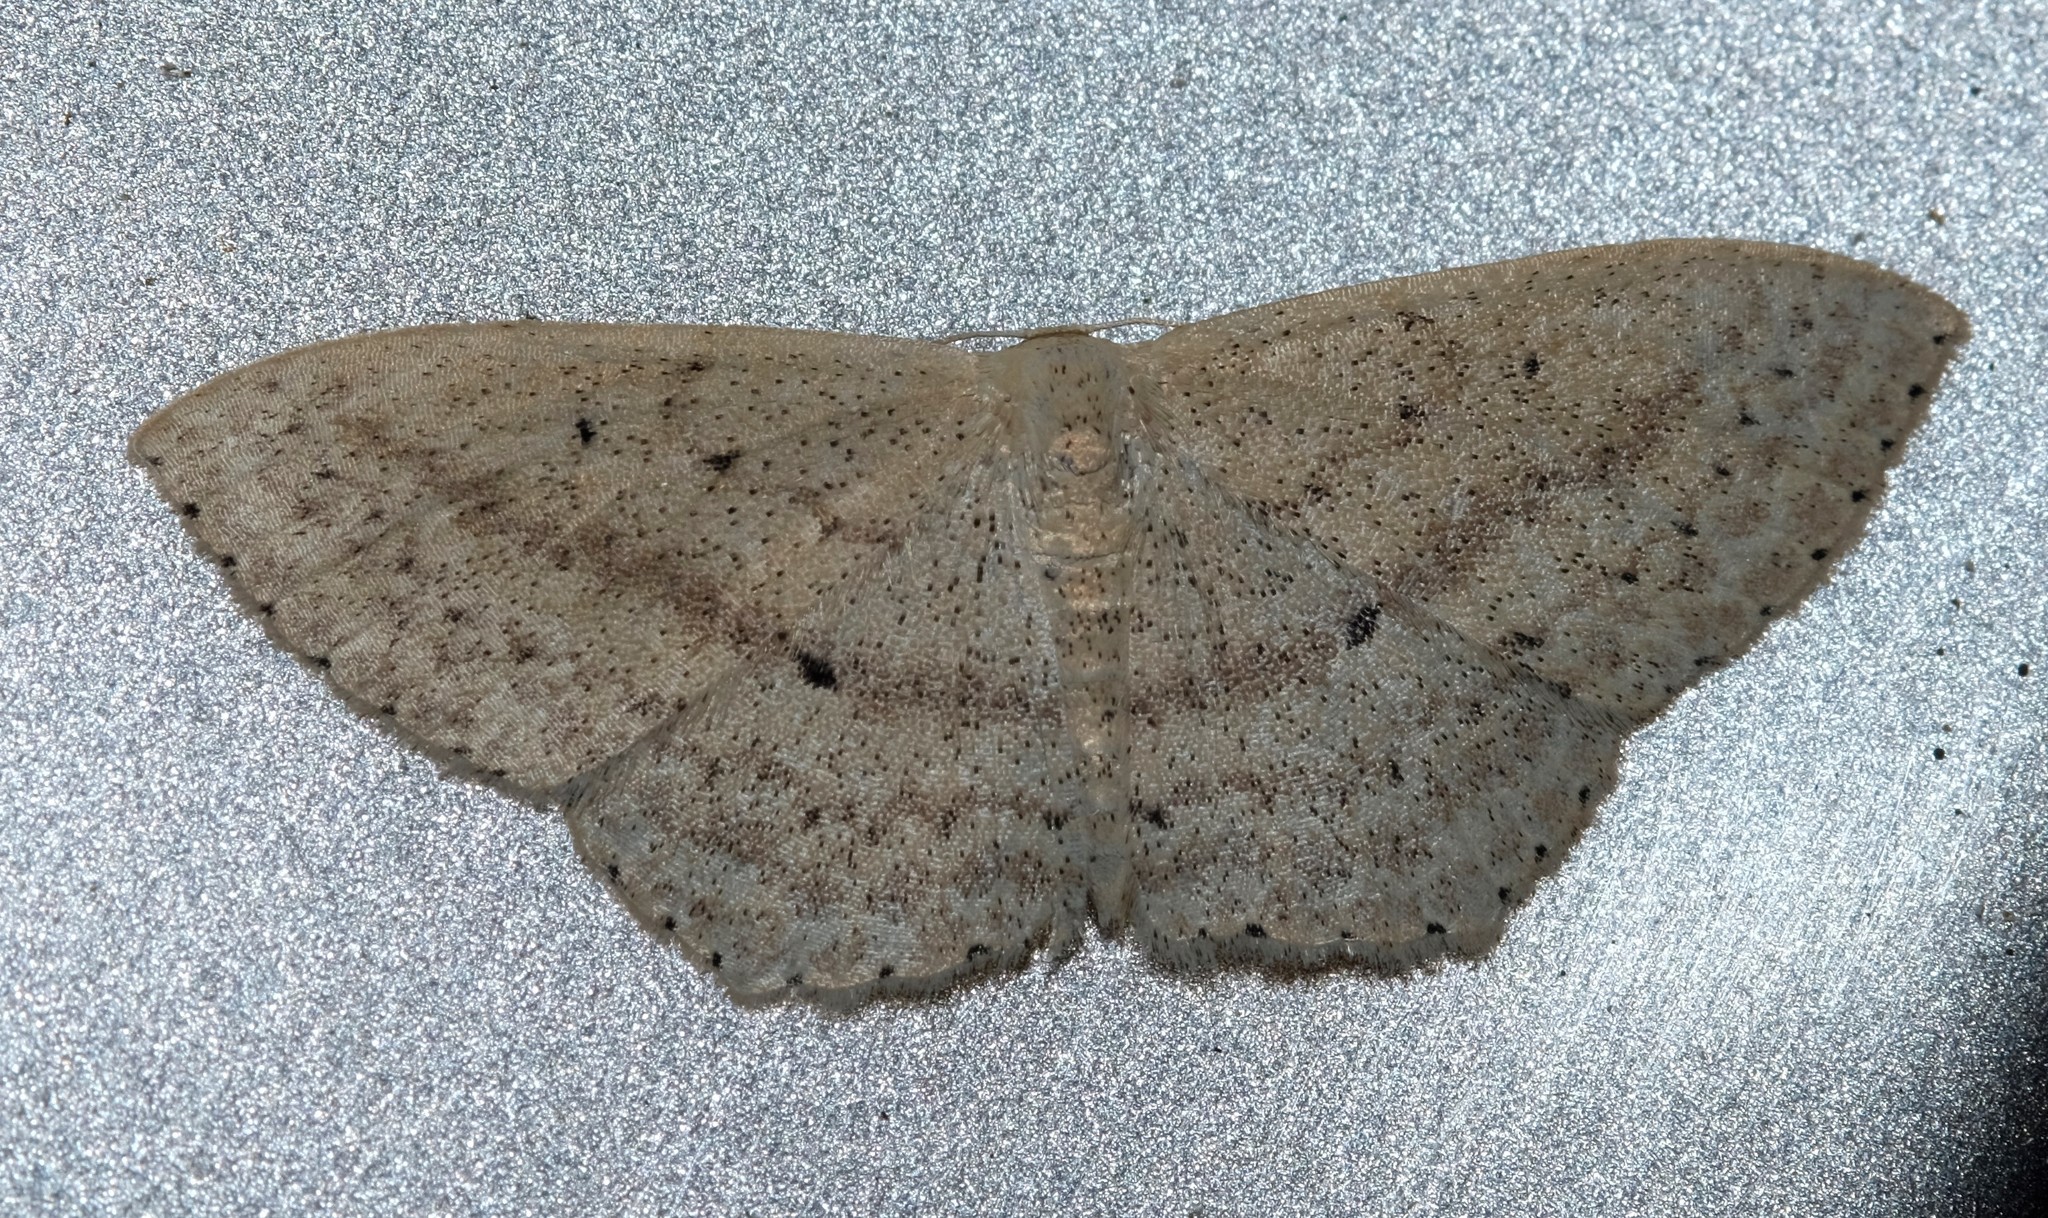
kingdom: Animalia
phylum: Arthropoda
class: Insecta
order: Lepidoptera
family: Geometridae
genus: Scopula
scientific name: Scopula perlata
